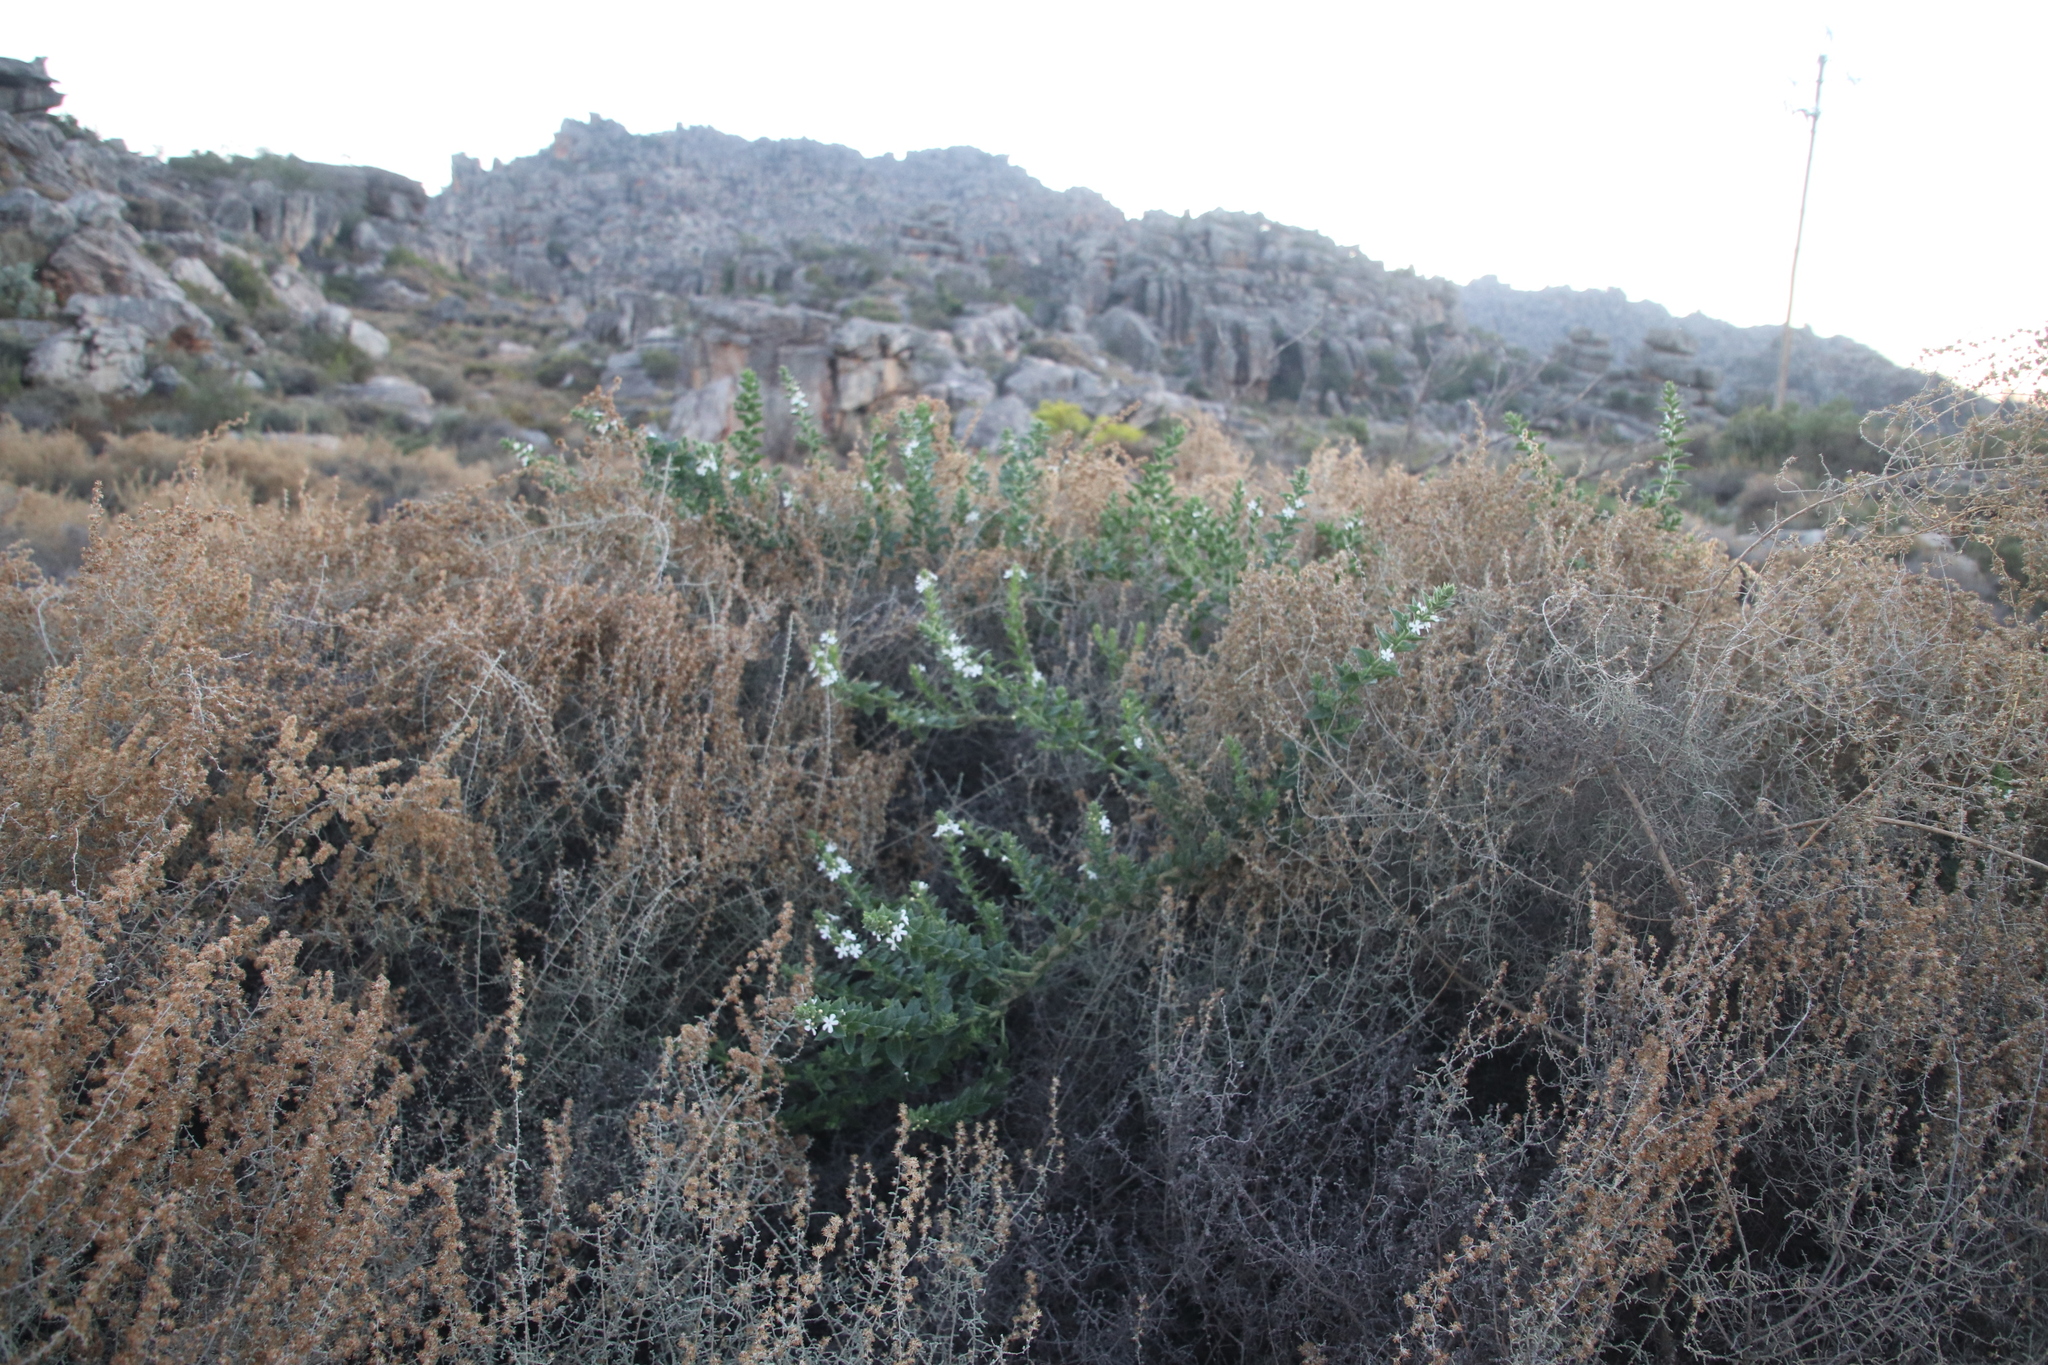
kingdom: Plantae
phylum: Tracheophyta
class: Magnoliopsida
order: Lamiales
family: Scrophulariaceae
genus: Oftia
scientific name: Oftia africana
